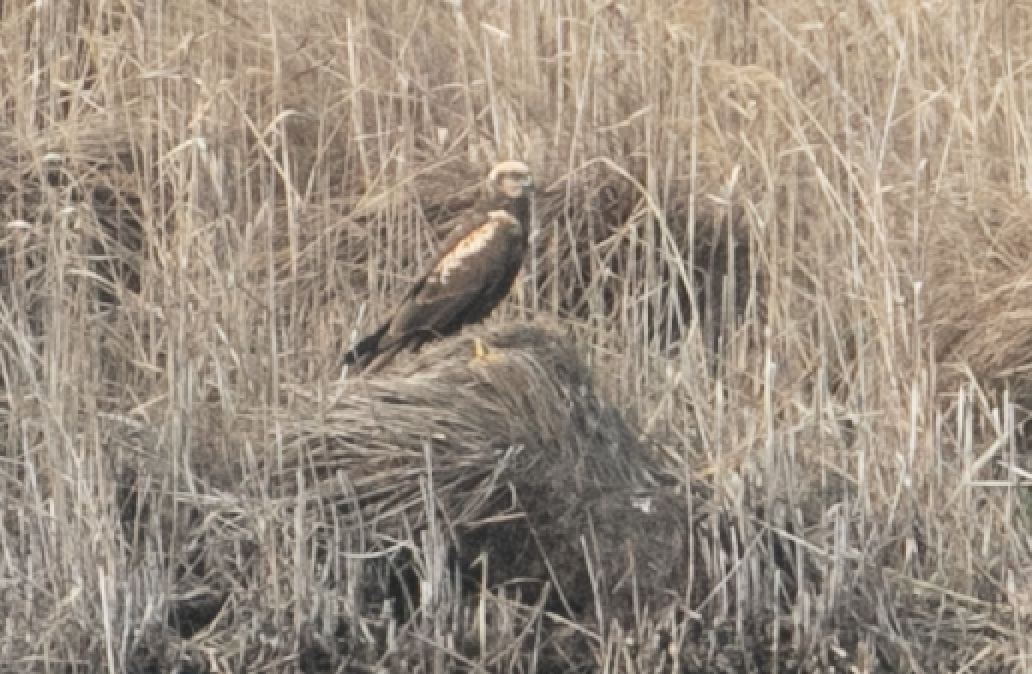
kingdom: Animalia
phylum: Chordata
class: Aves
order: Accipitriformes
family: Accipitridae
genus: Circus
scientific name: Circus aeruginosus
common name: Western marsh harrier
